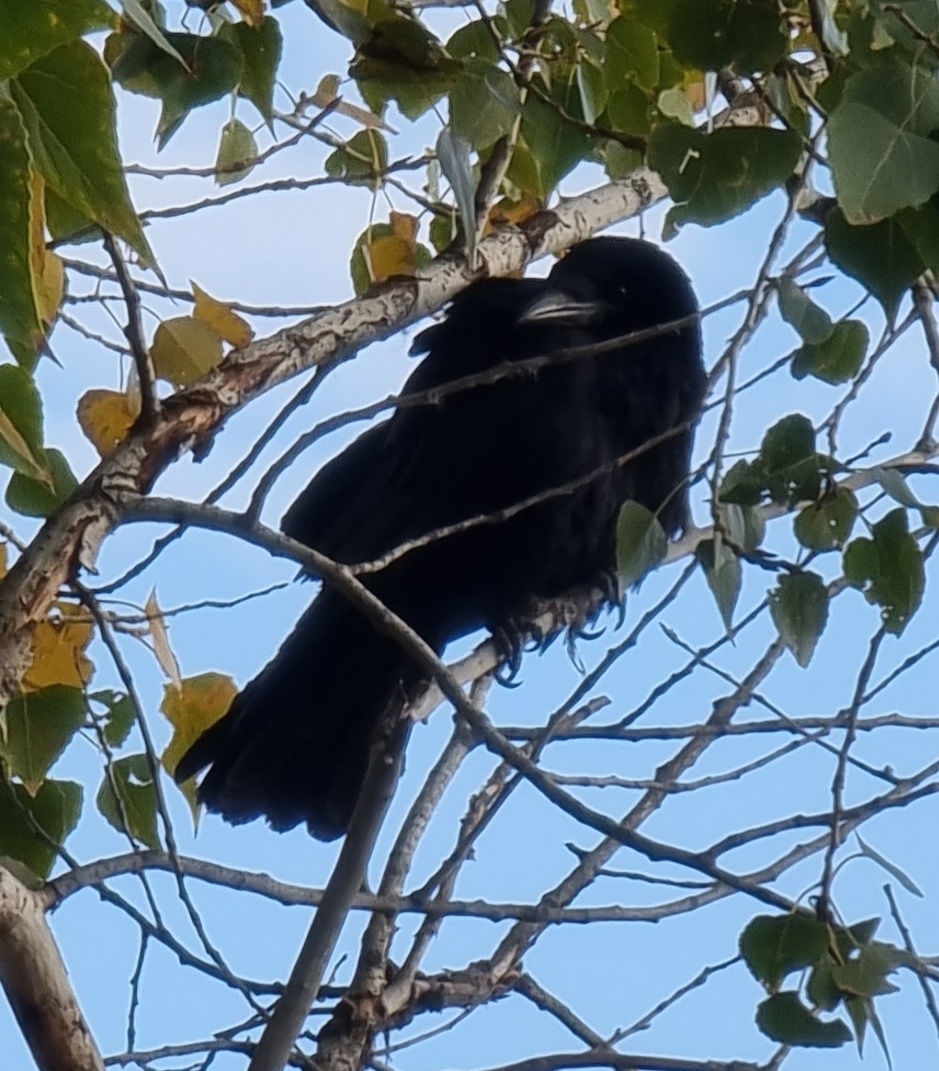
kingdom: Animalia
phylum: Chordata
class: Aves
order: Passeriformes
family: Corvidae
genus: Corvus
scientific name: Corvus frugilegus
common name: Rook
